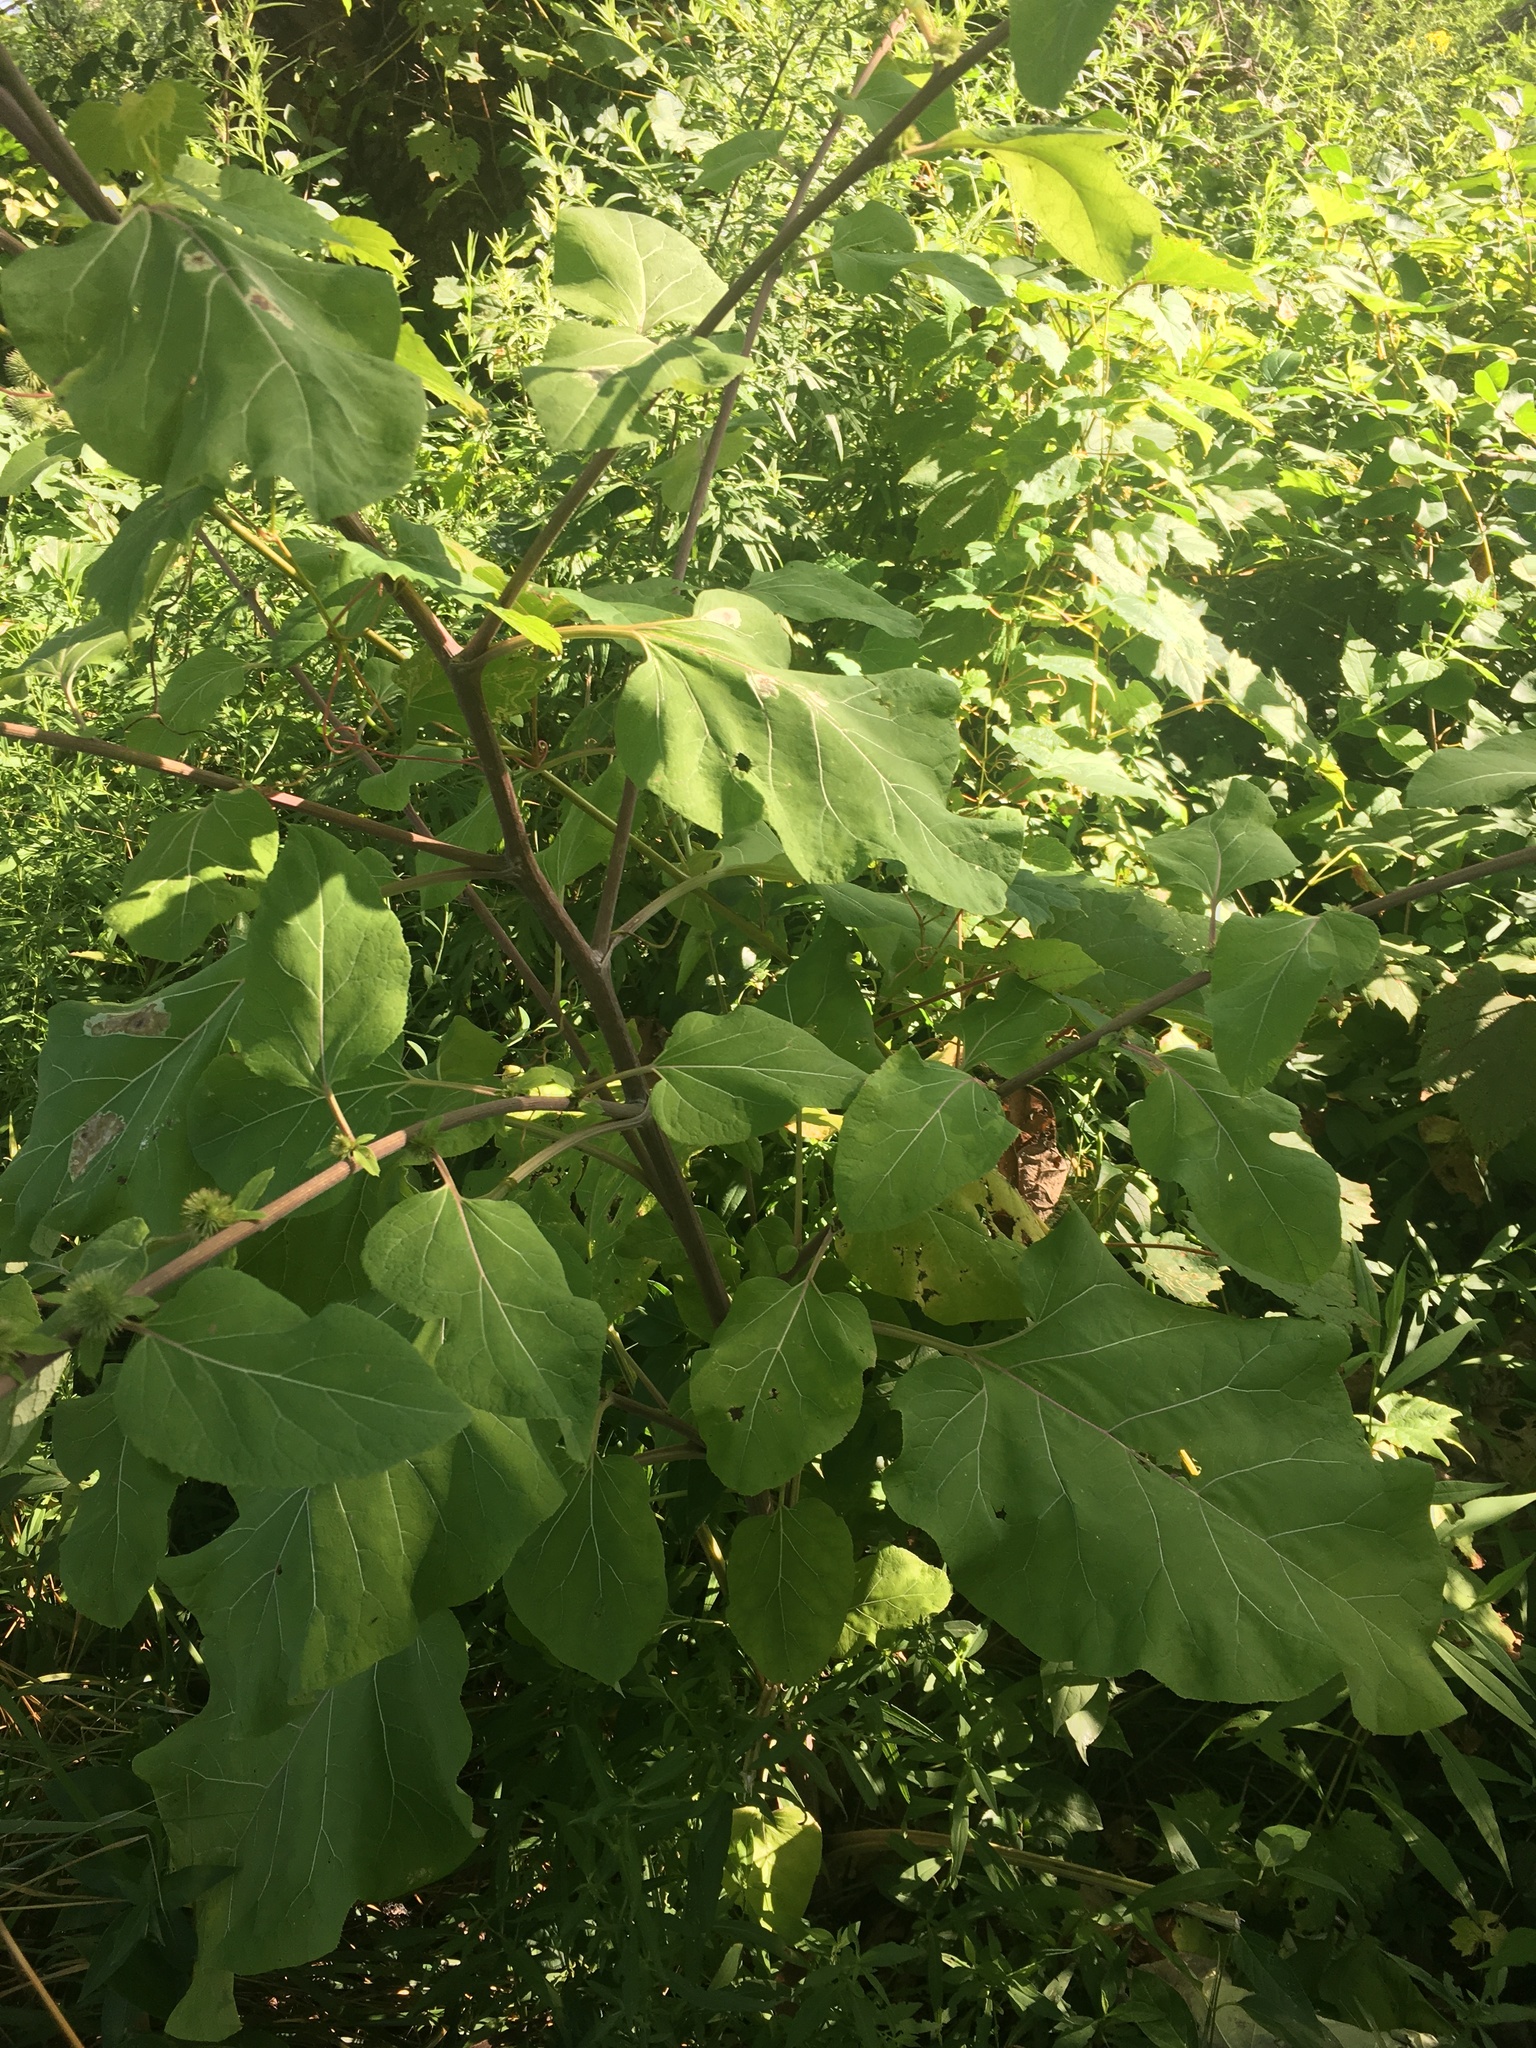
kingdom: Plantae
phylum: Tracheophyta
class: Magnoliopsida
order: Asterales
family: Asteraceae
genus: Arctium
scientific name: Arctium lappa
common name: Greater burdock
